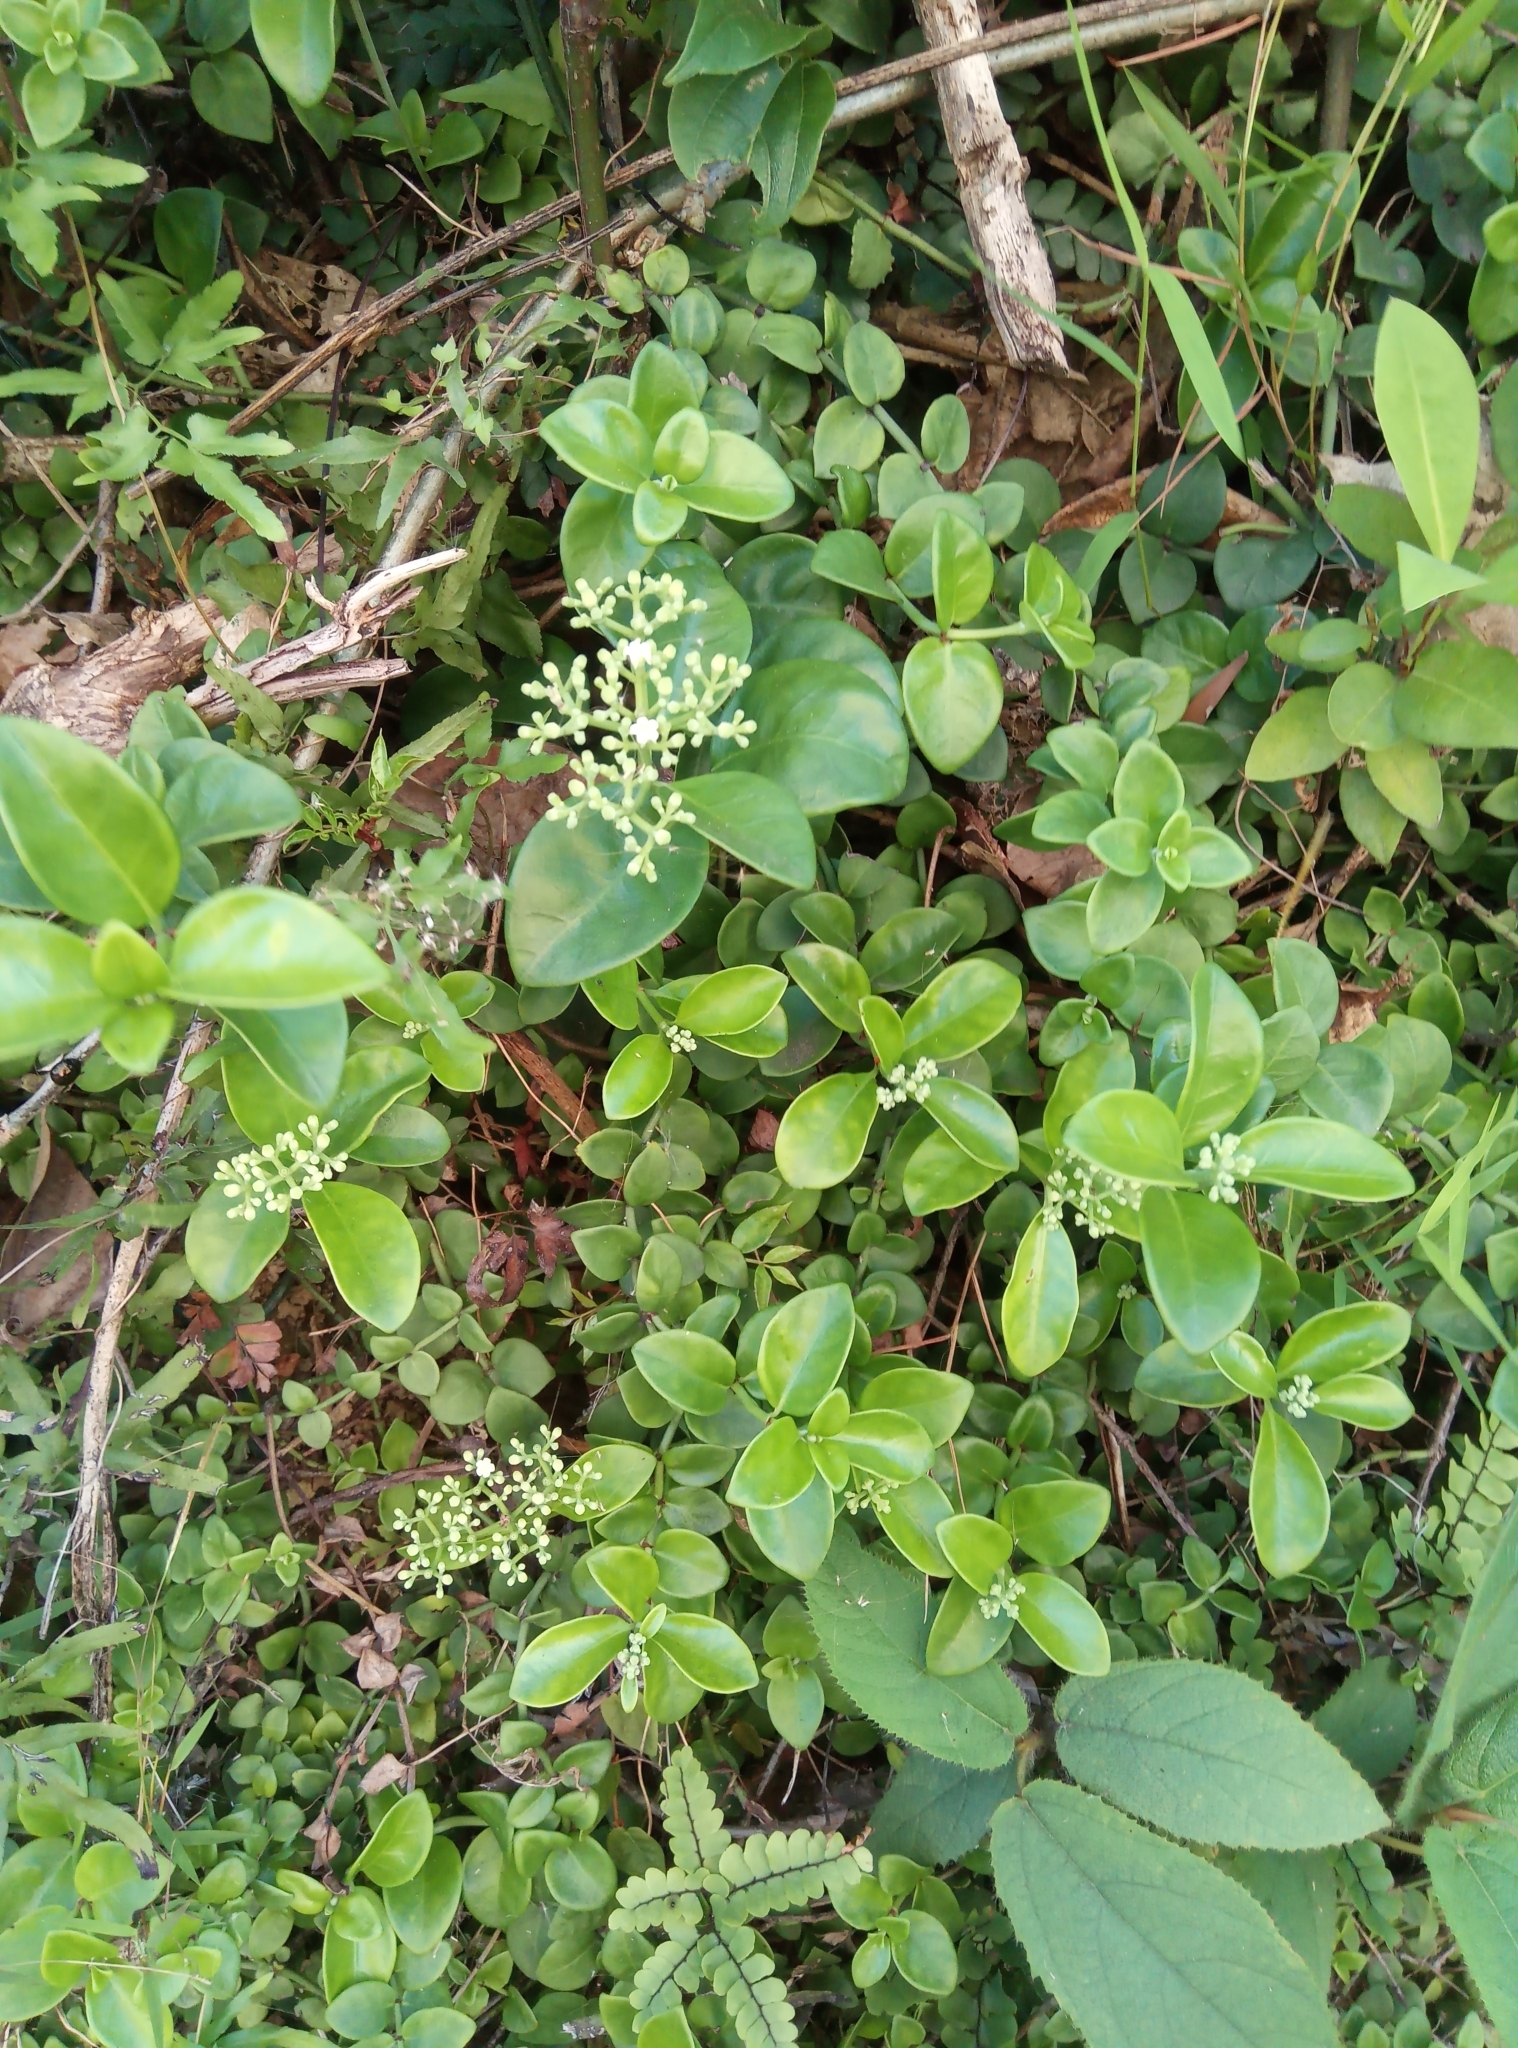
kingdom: Plantae
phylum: Tracheophyta
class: Magnoliopsida
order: Gentianales
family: Rubiaceae
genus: Psychotria
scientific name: Psychotria serpens
